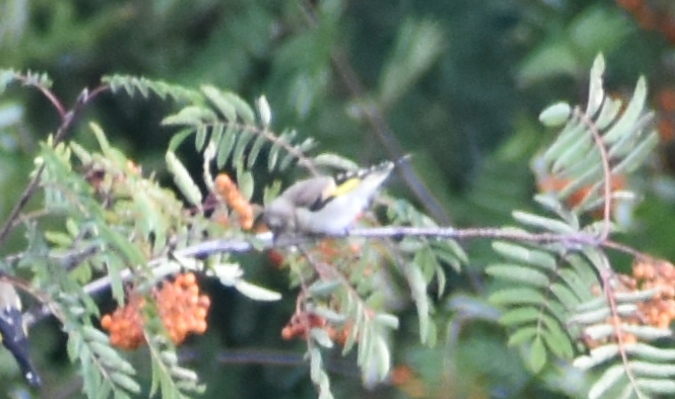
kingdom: Animalia
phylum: Chordata
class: Aves
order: Passeriformes
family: Fringillidae
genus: Carduelis
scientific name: Carduelis carduelis
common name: European goldfinch
